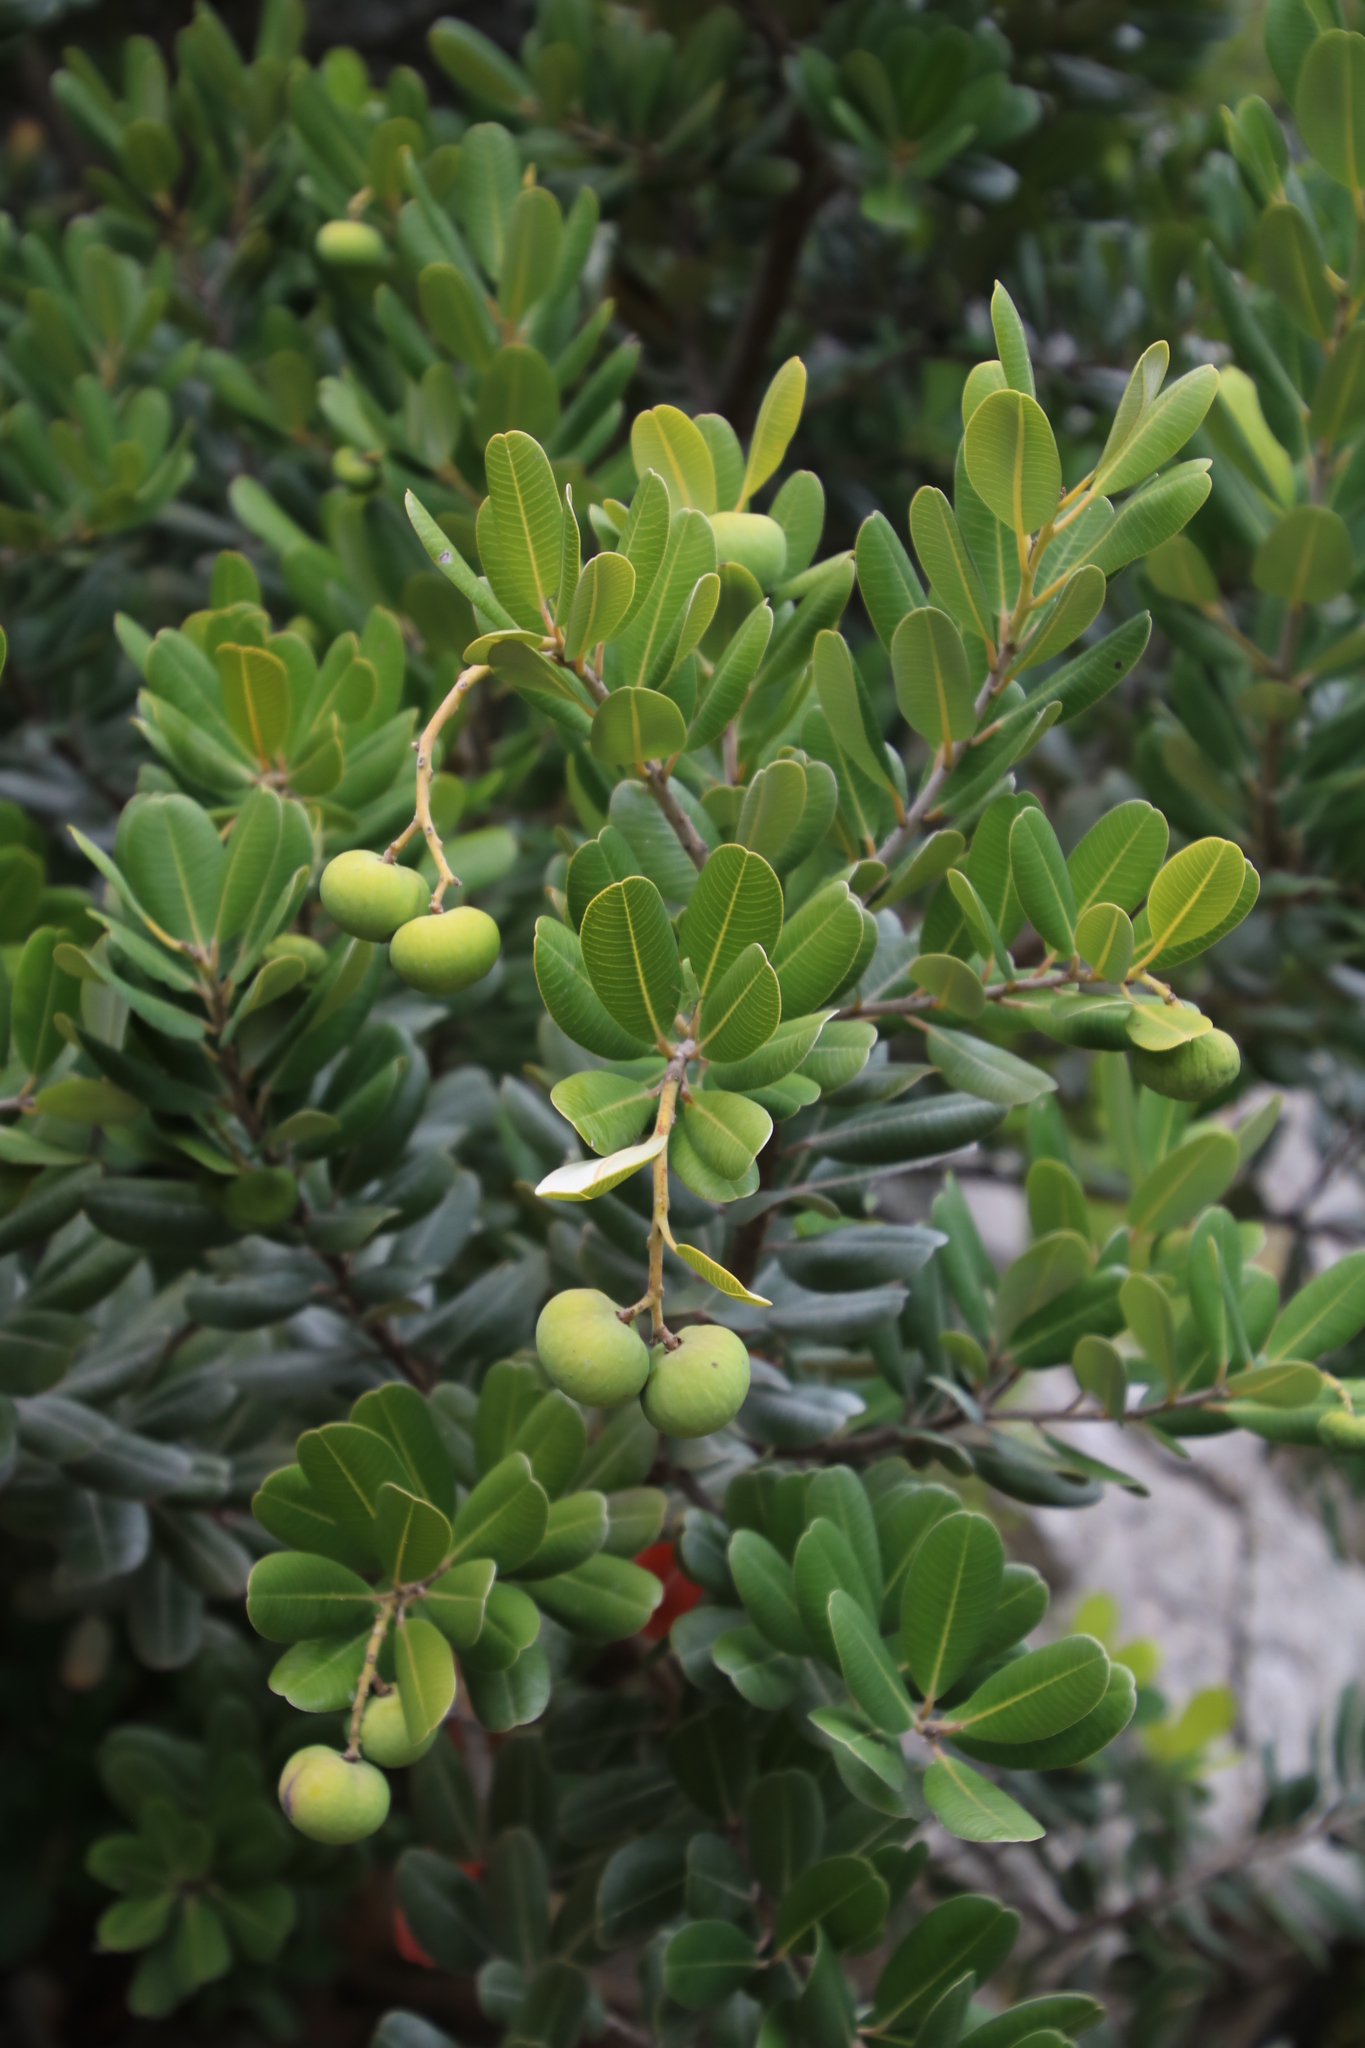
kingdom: Plantae
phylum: Tracheophyta
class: Magnoliopsida
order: Sapindales
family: Anacardiaceae
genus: Heeria
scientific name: Heeria argentea
